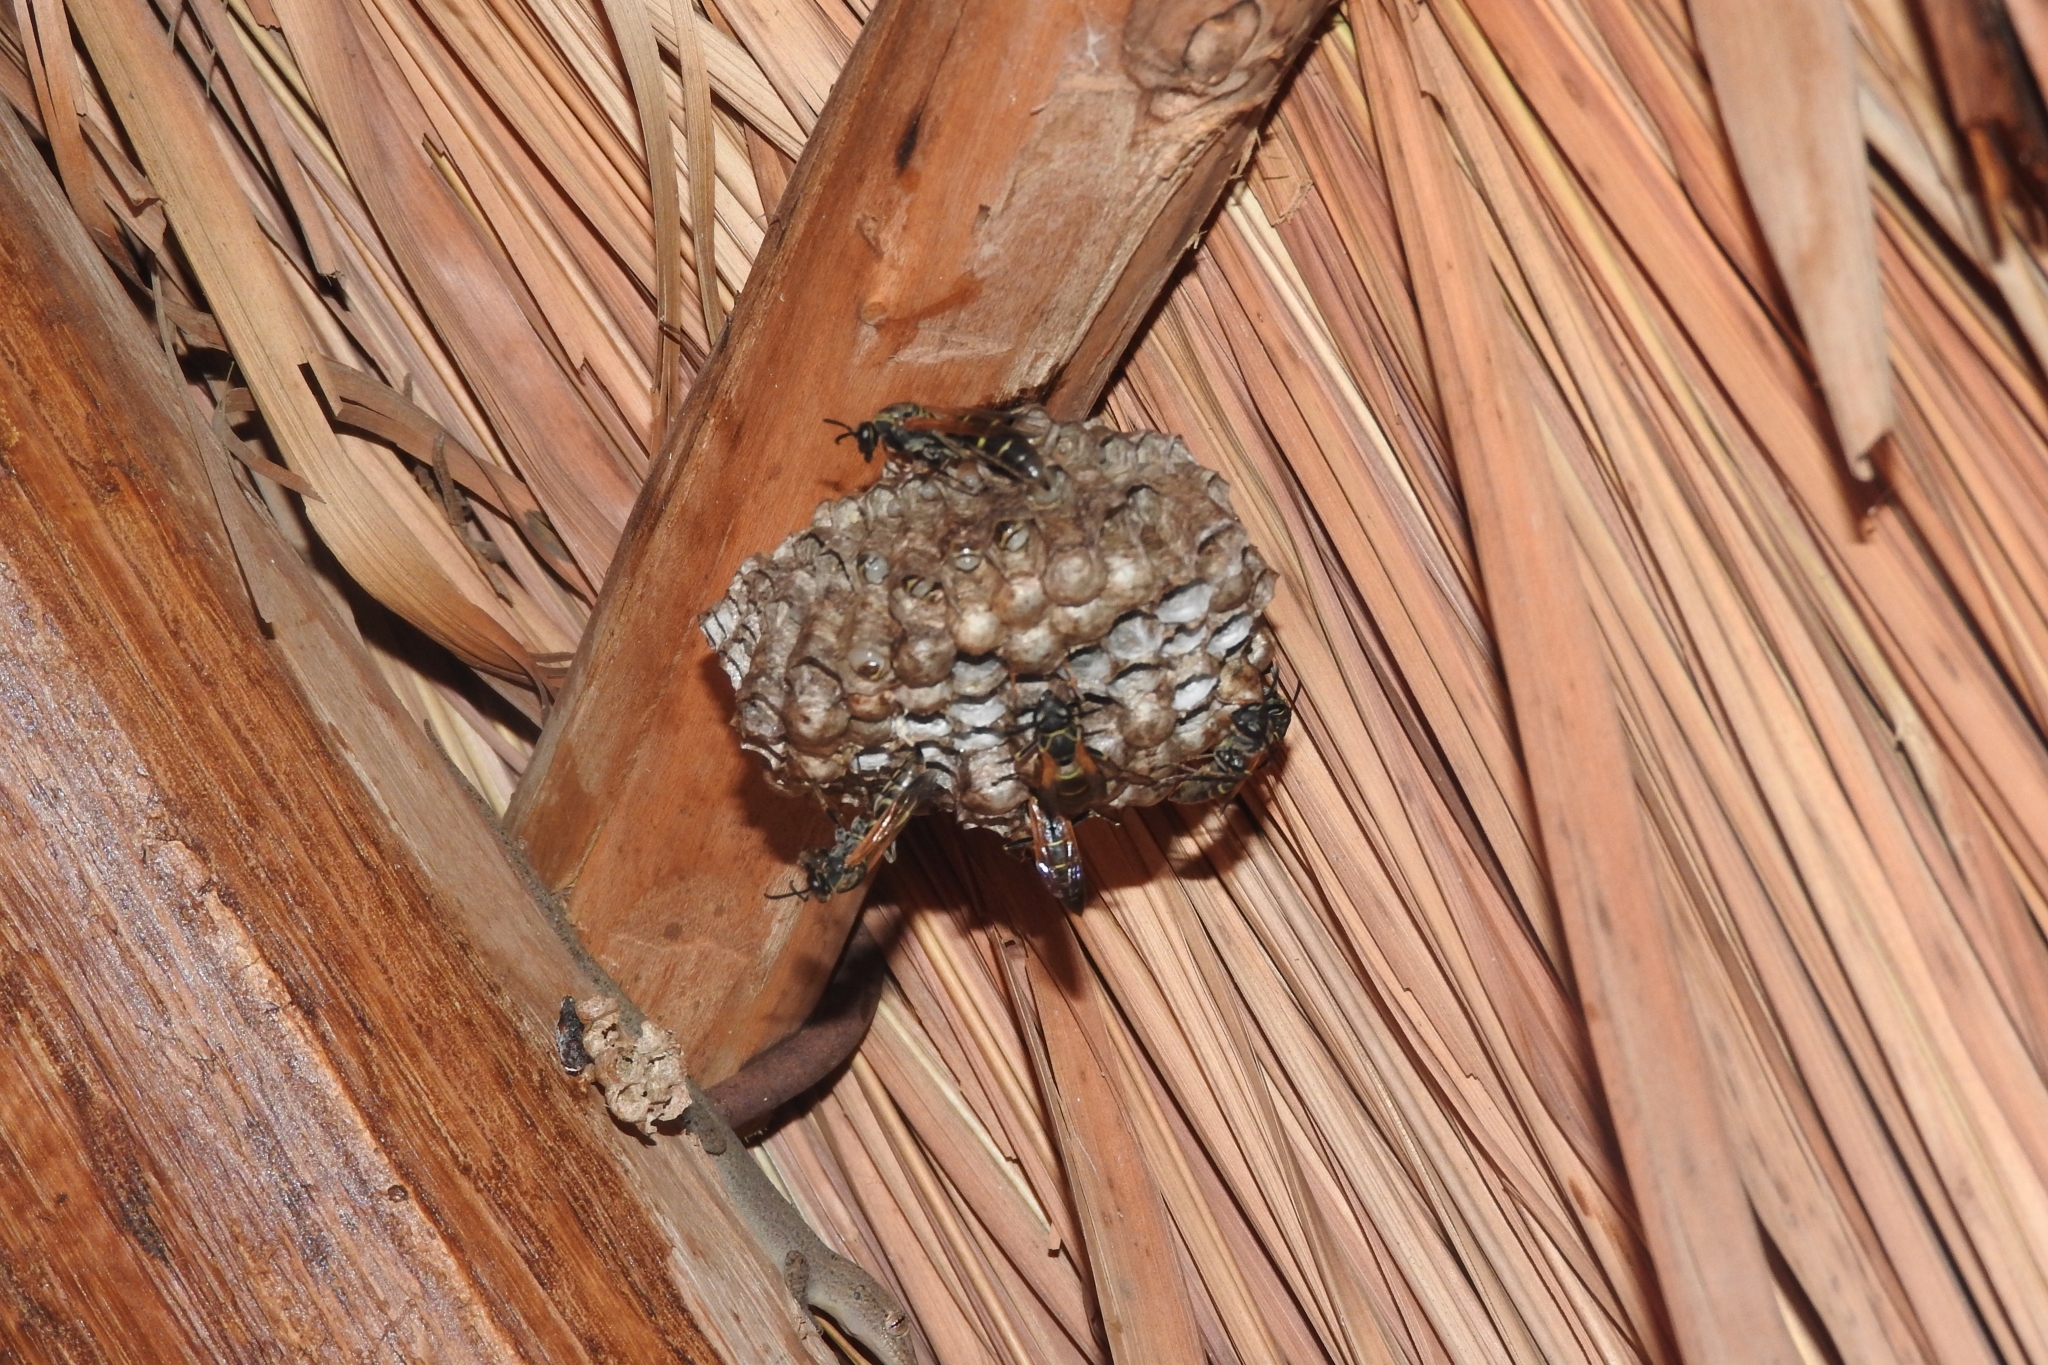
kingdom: Animalia
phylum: Arthropoda
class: Insecta
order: Hymenoptera
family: Eumenidae
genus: Polistes
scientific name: Polistes pacificus
